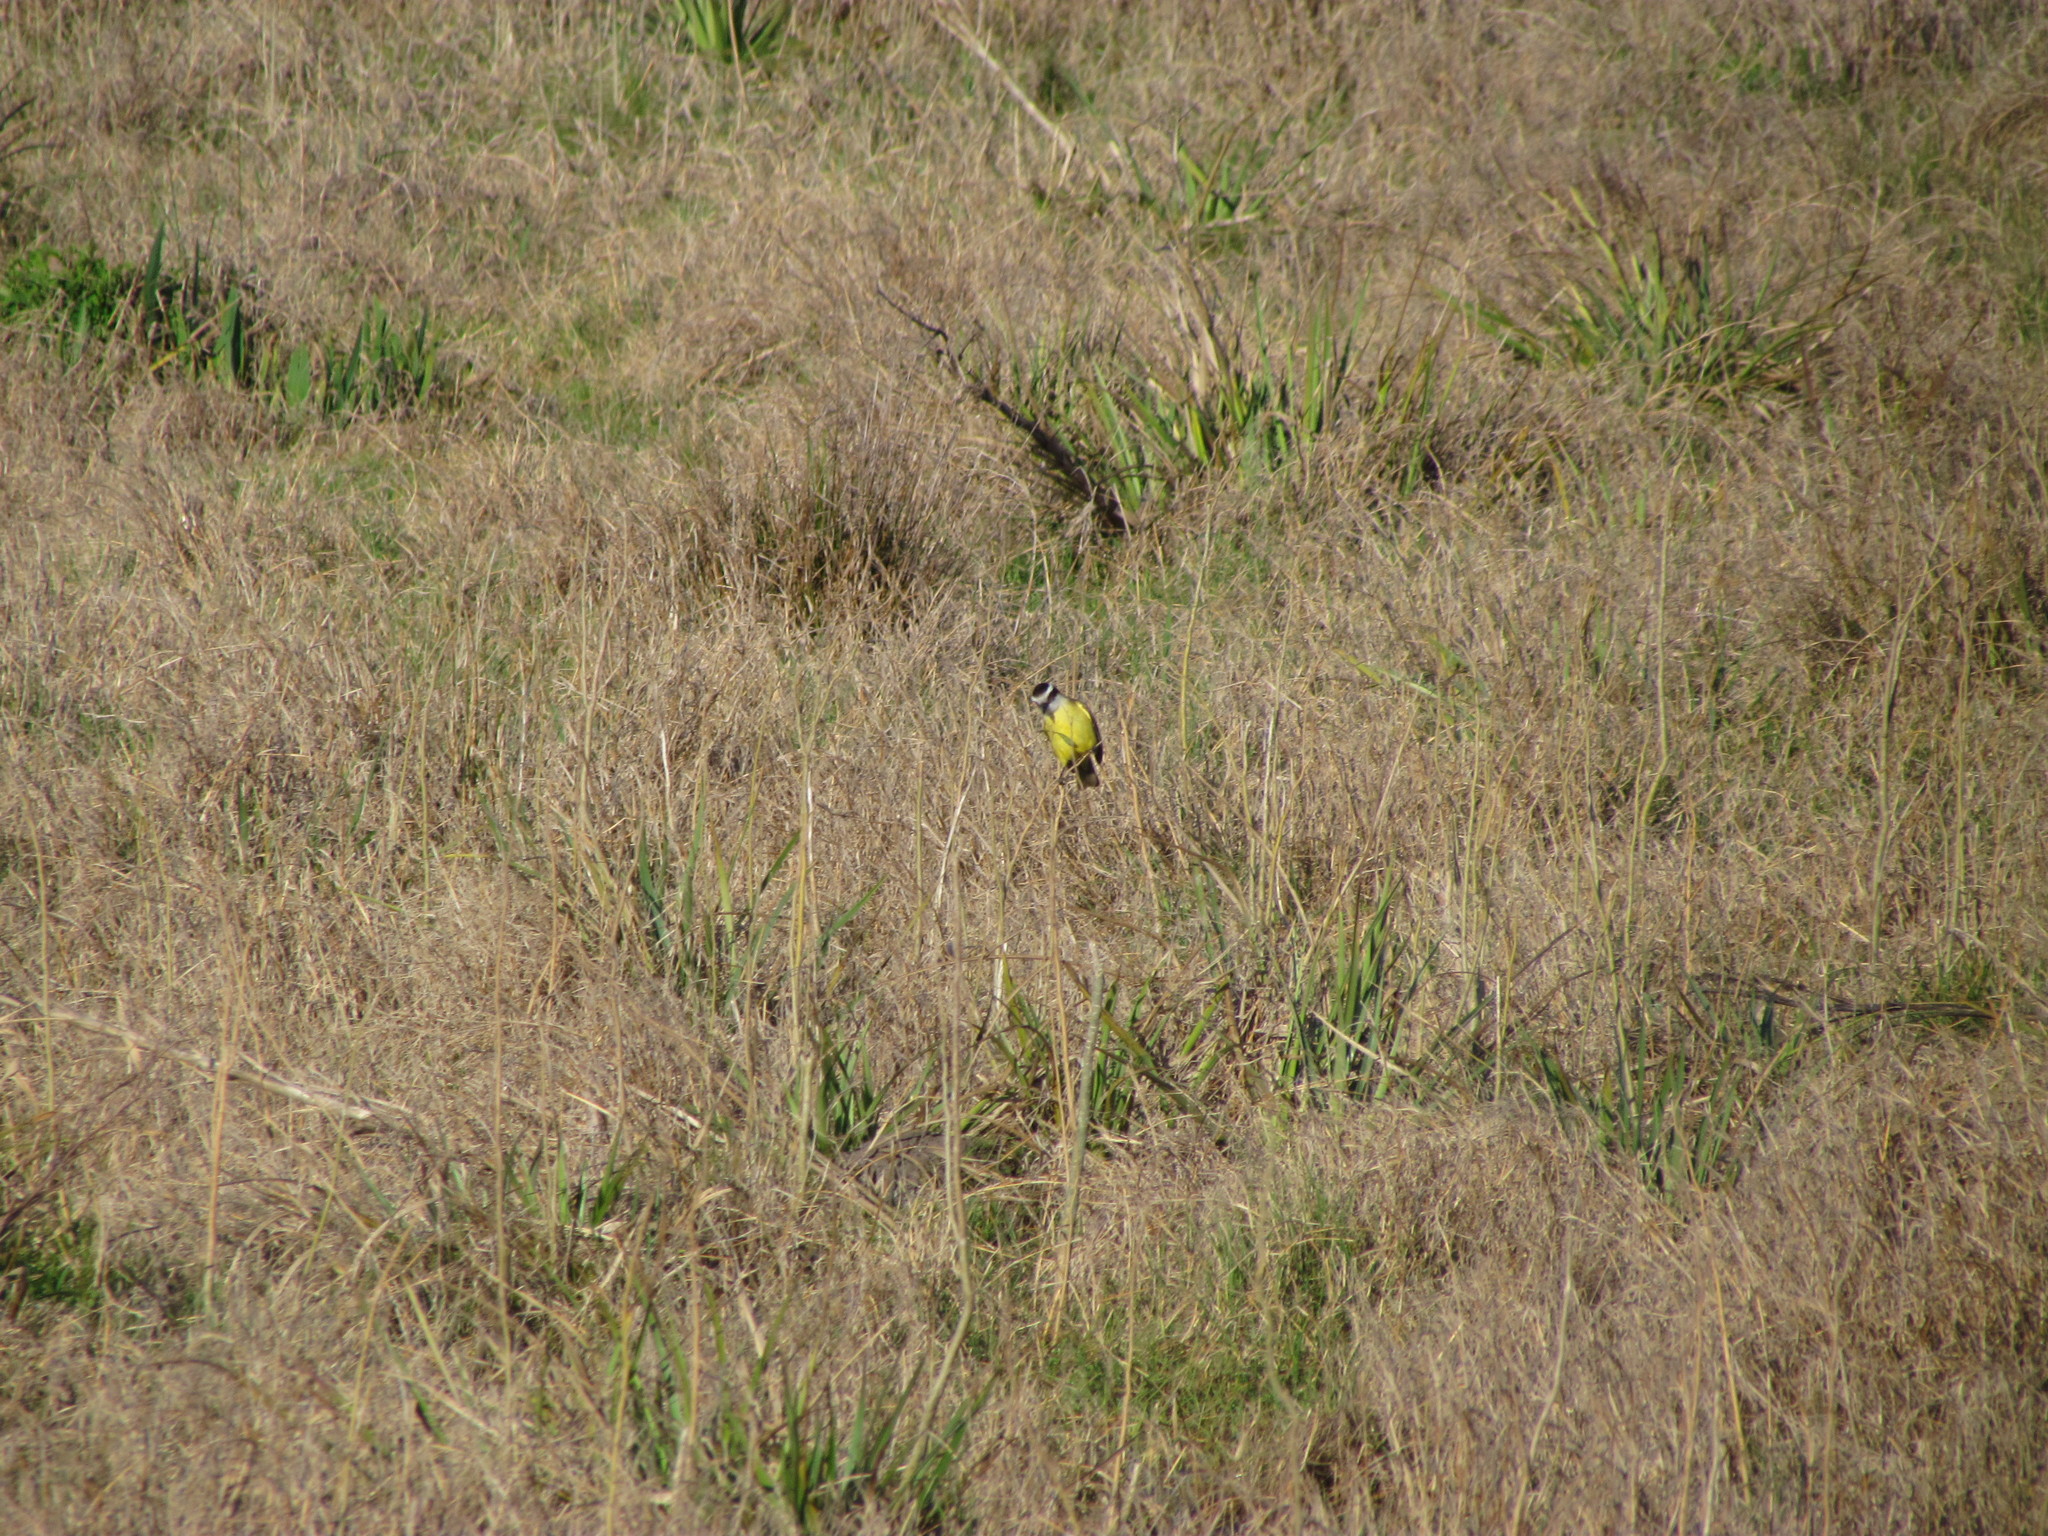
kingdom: Animalia
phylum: Chordata
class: Aves
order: Passeriformes
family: Tyrannidae
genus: Pitangus
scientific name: Pitangus sulphuratus
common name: Great kiskadee
